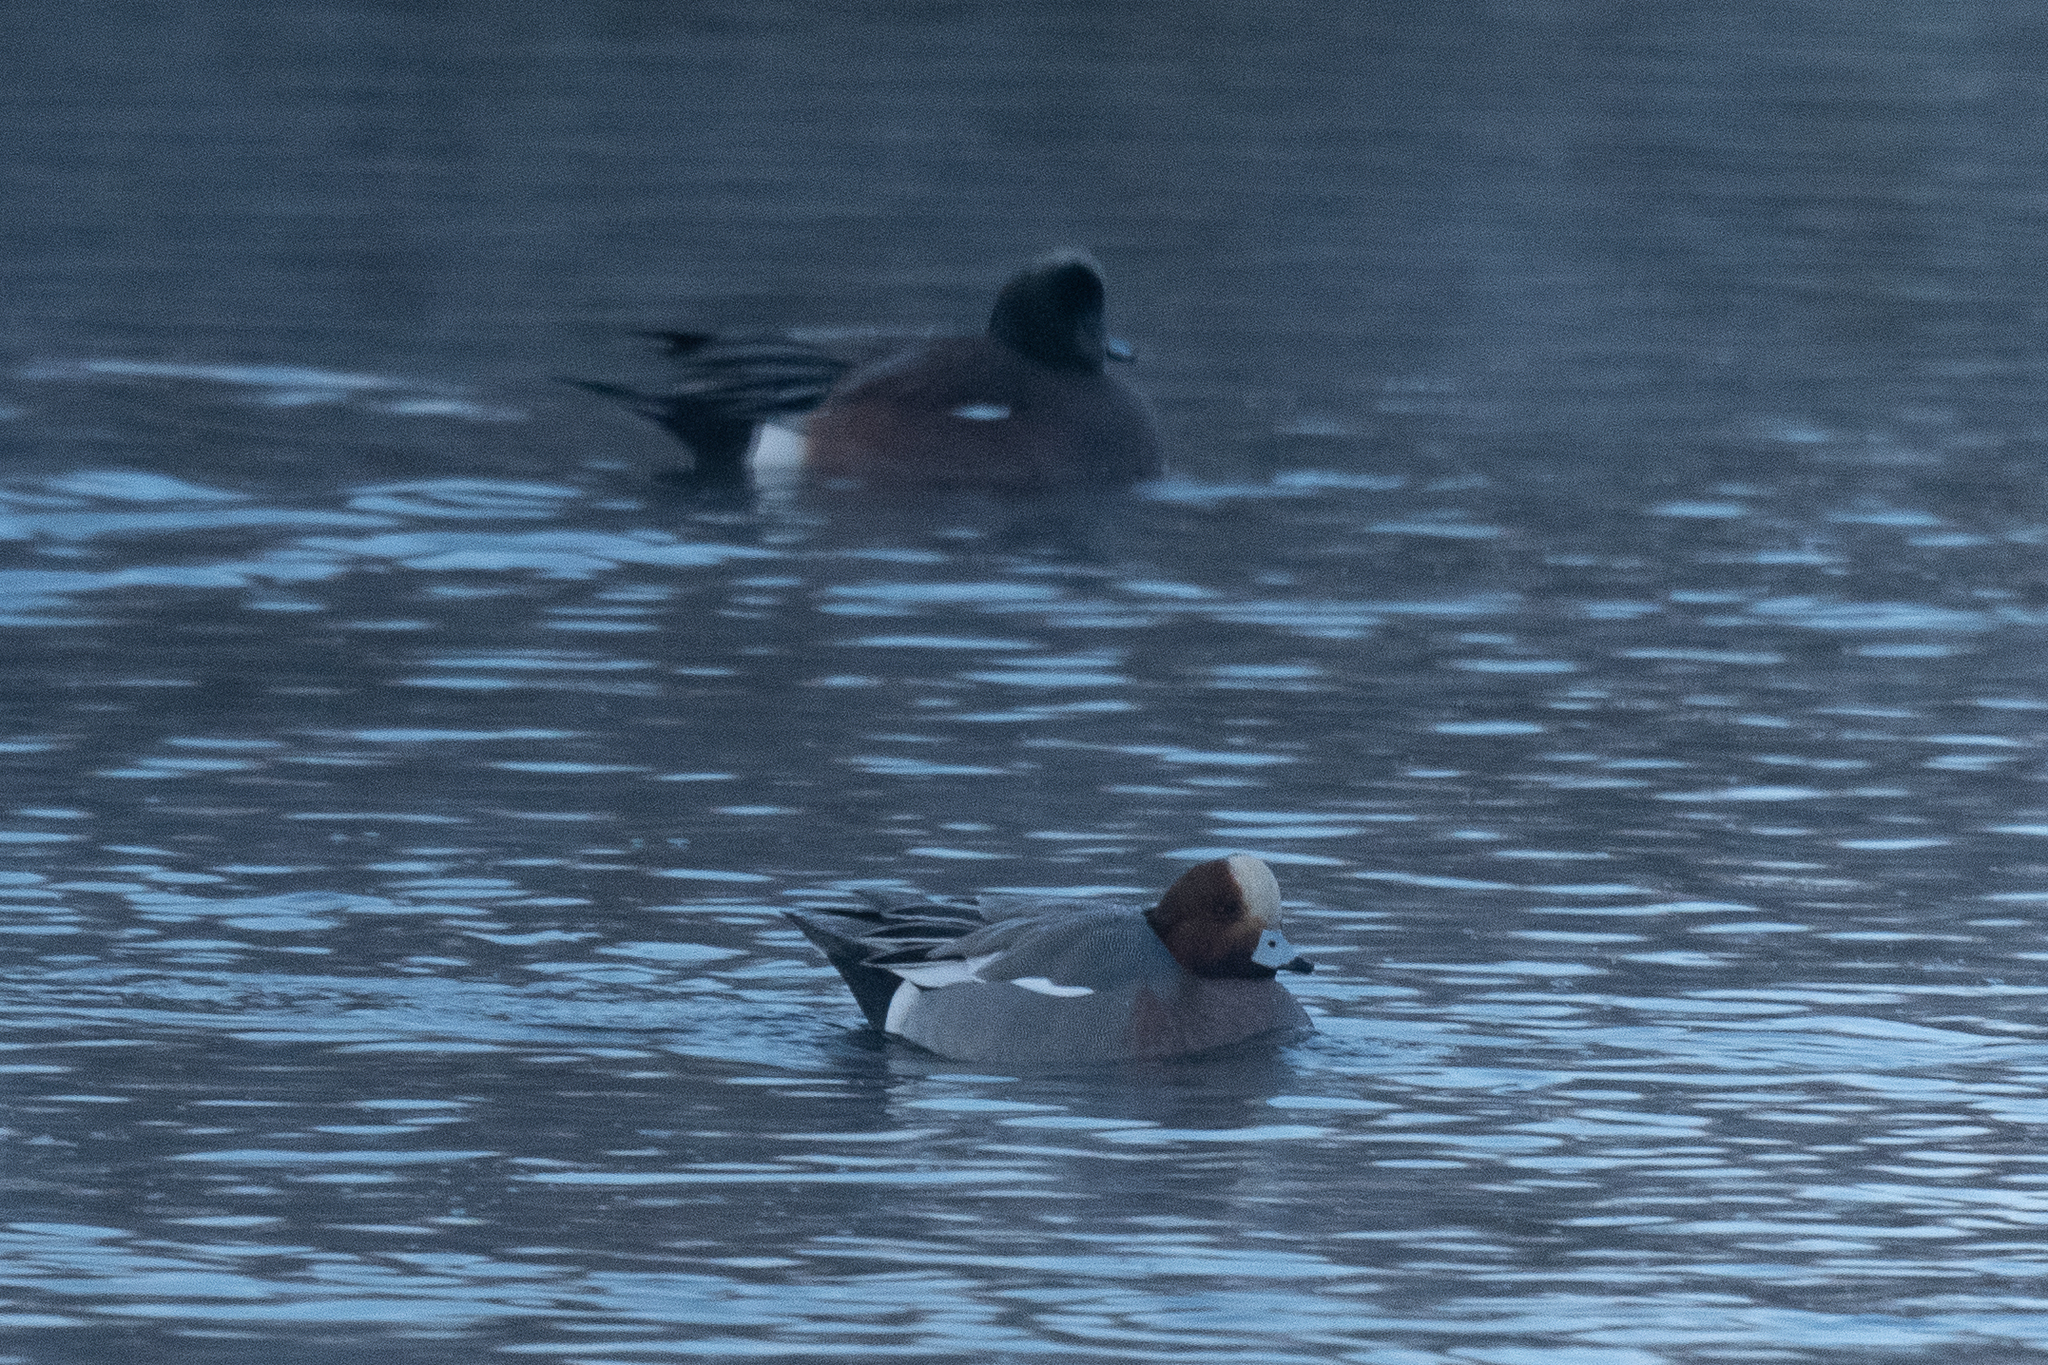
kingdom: Animalia
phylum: Chordata
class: Aves
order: Anseriformes
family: Anatidae
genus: Mareca
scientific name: Mareca penelope
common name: Eurasian wigeon
